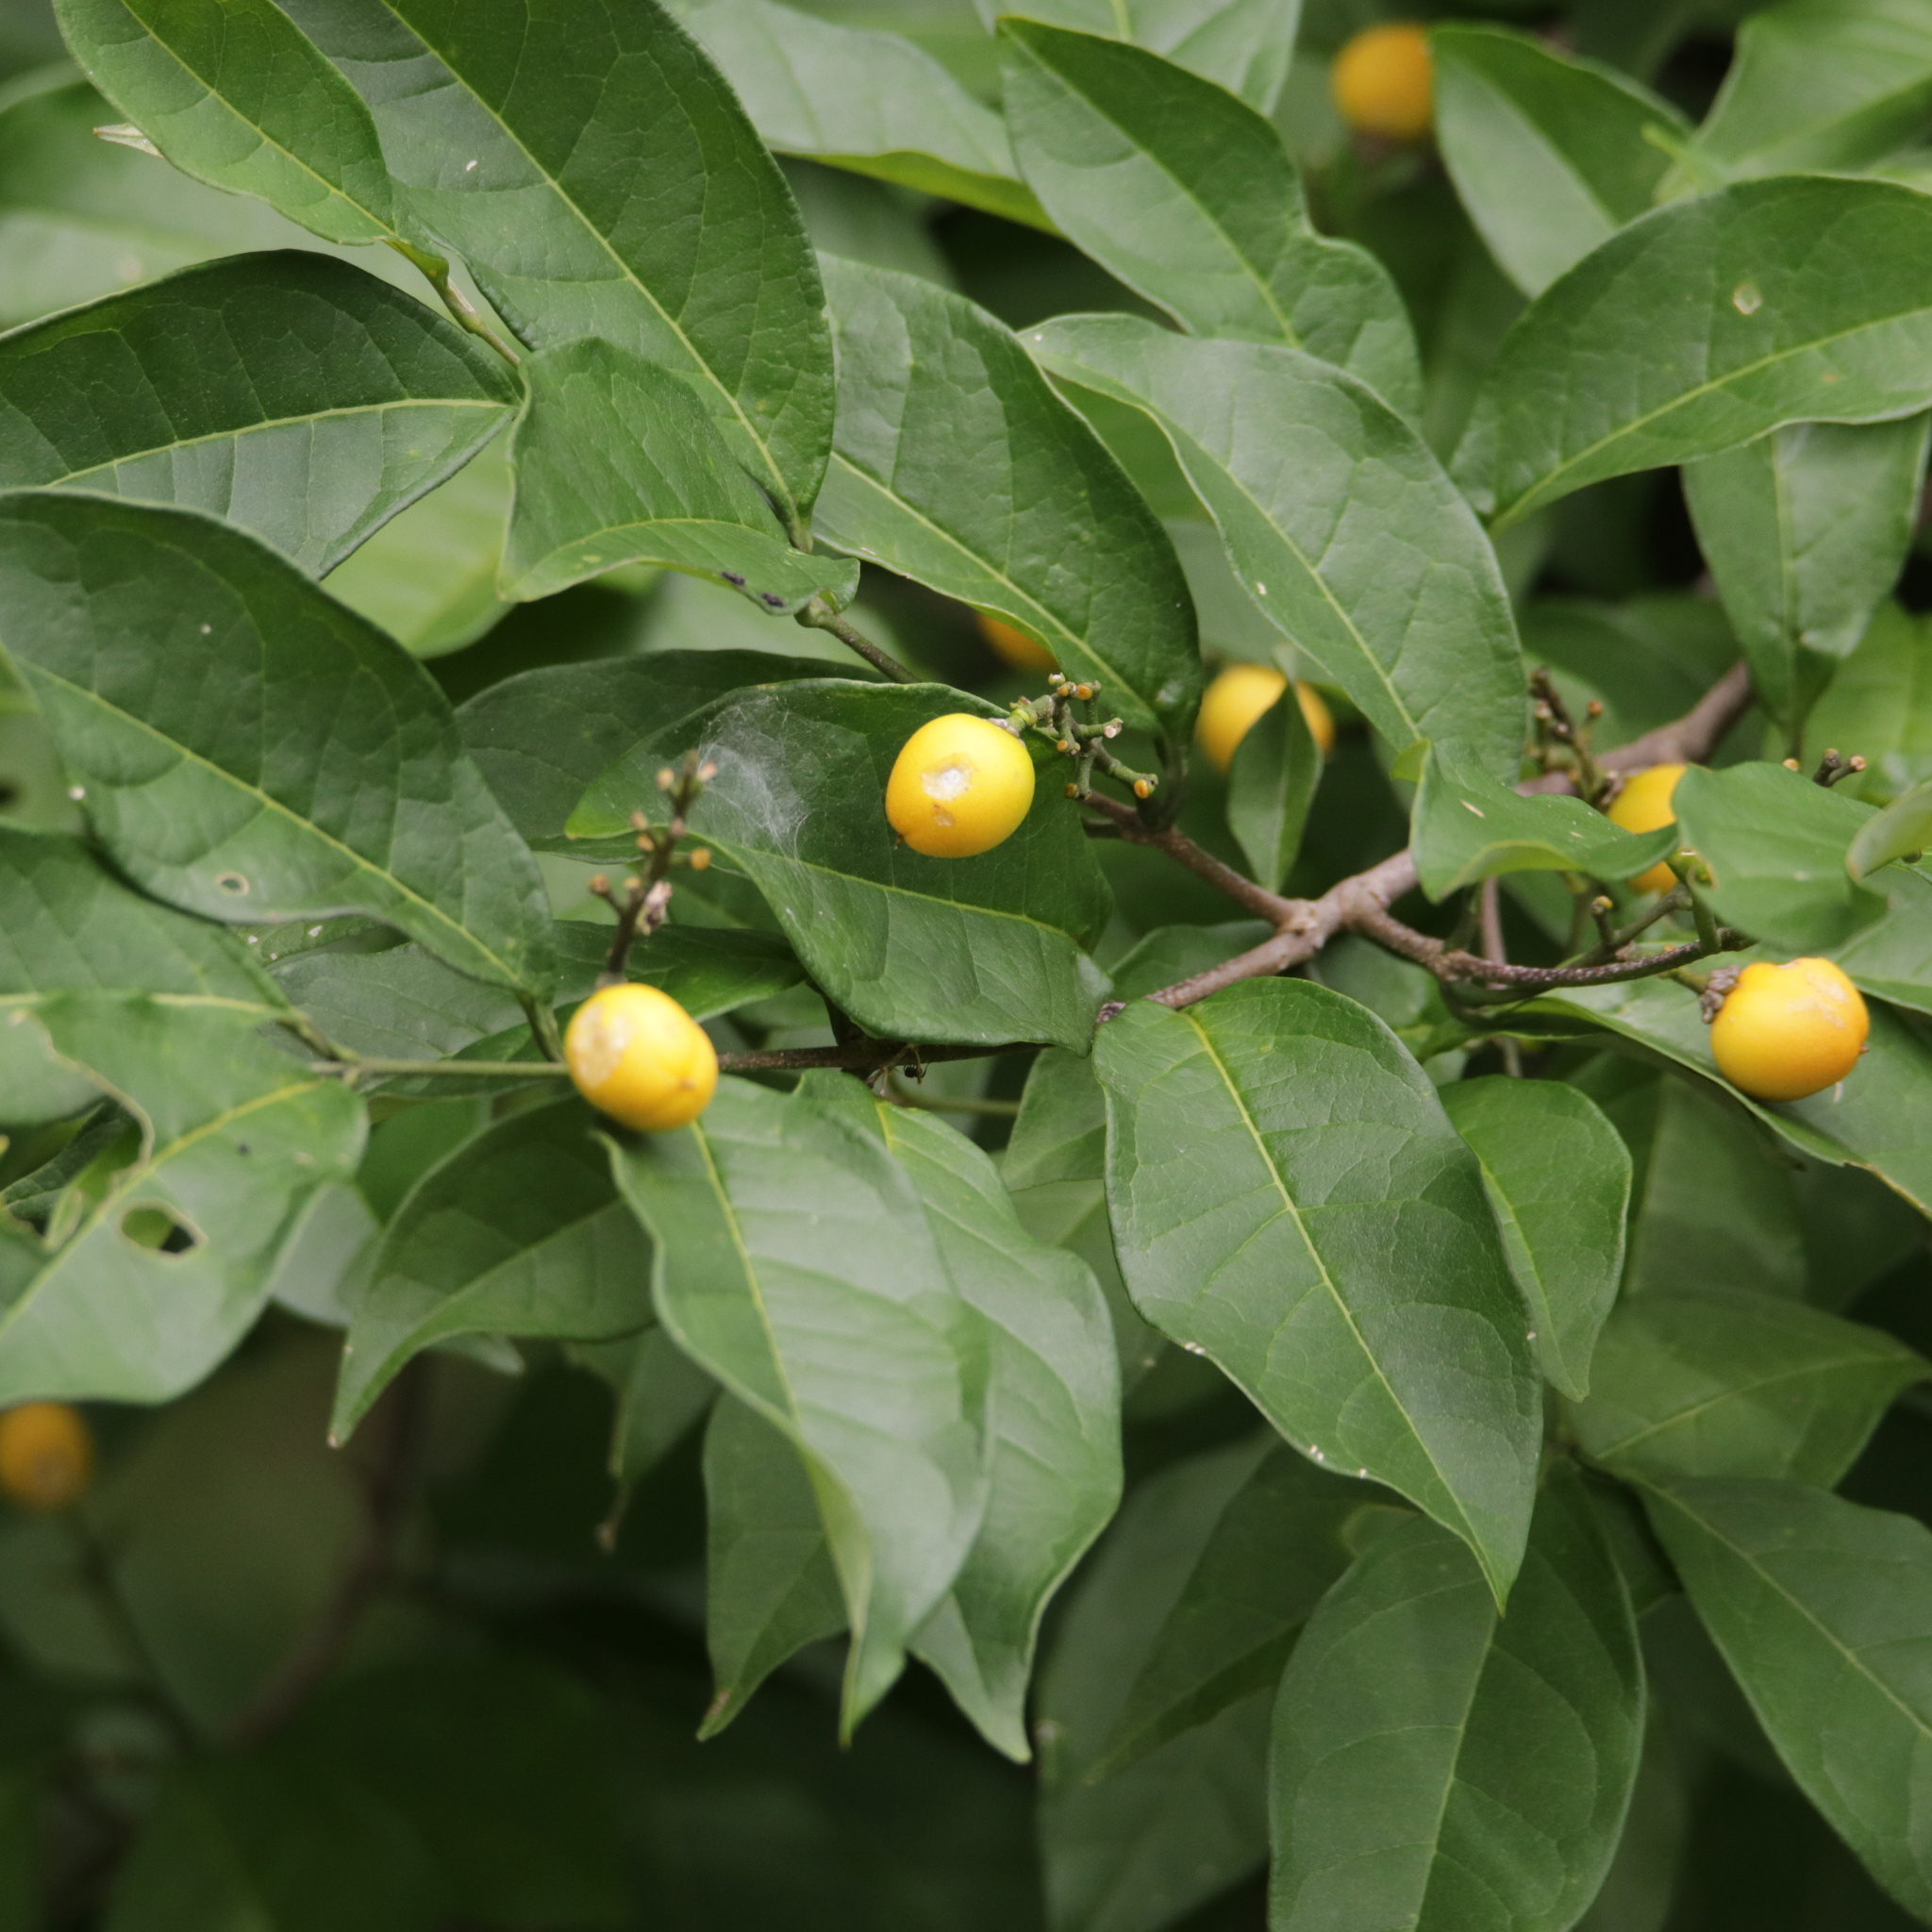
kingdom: Plantae
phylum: Tracheophyta
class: Magnoliopsida
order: Malpighiales
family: Malpighiaceae
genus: Bunchosia
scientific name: Bunchosia nitida
